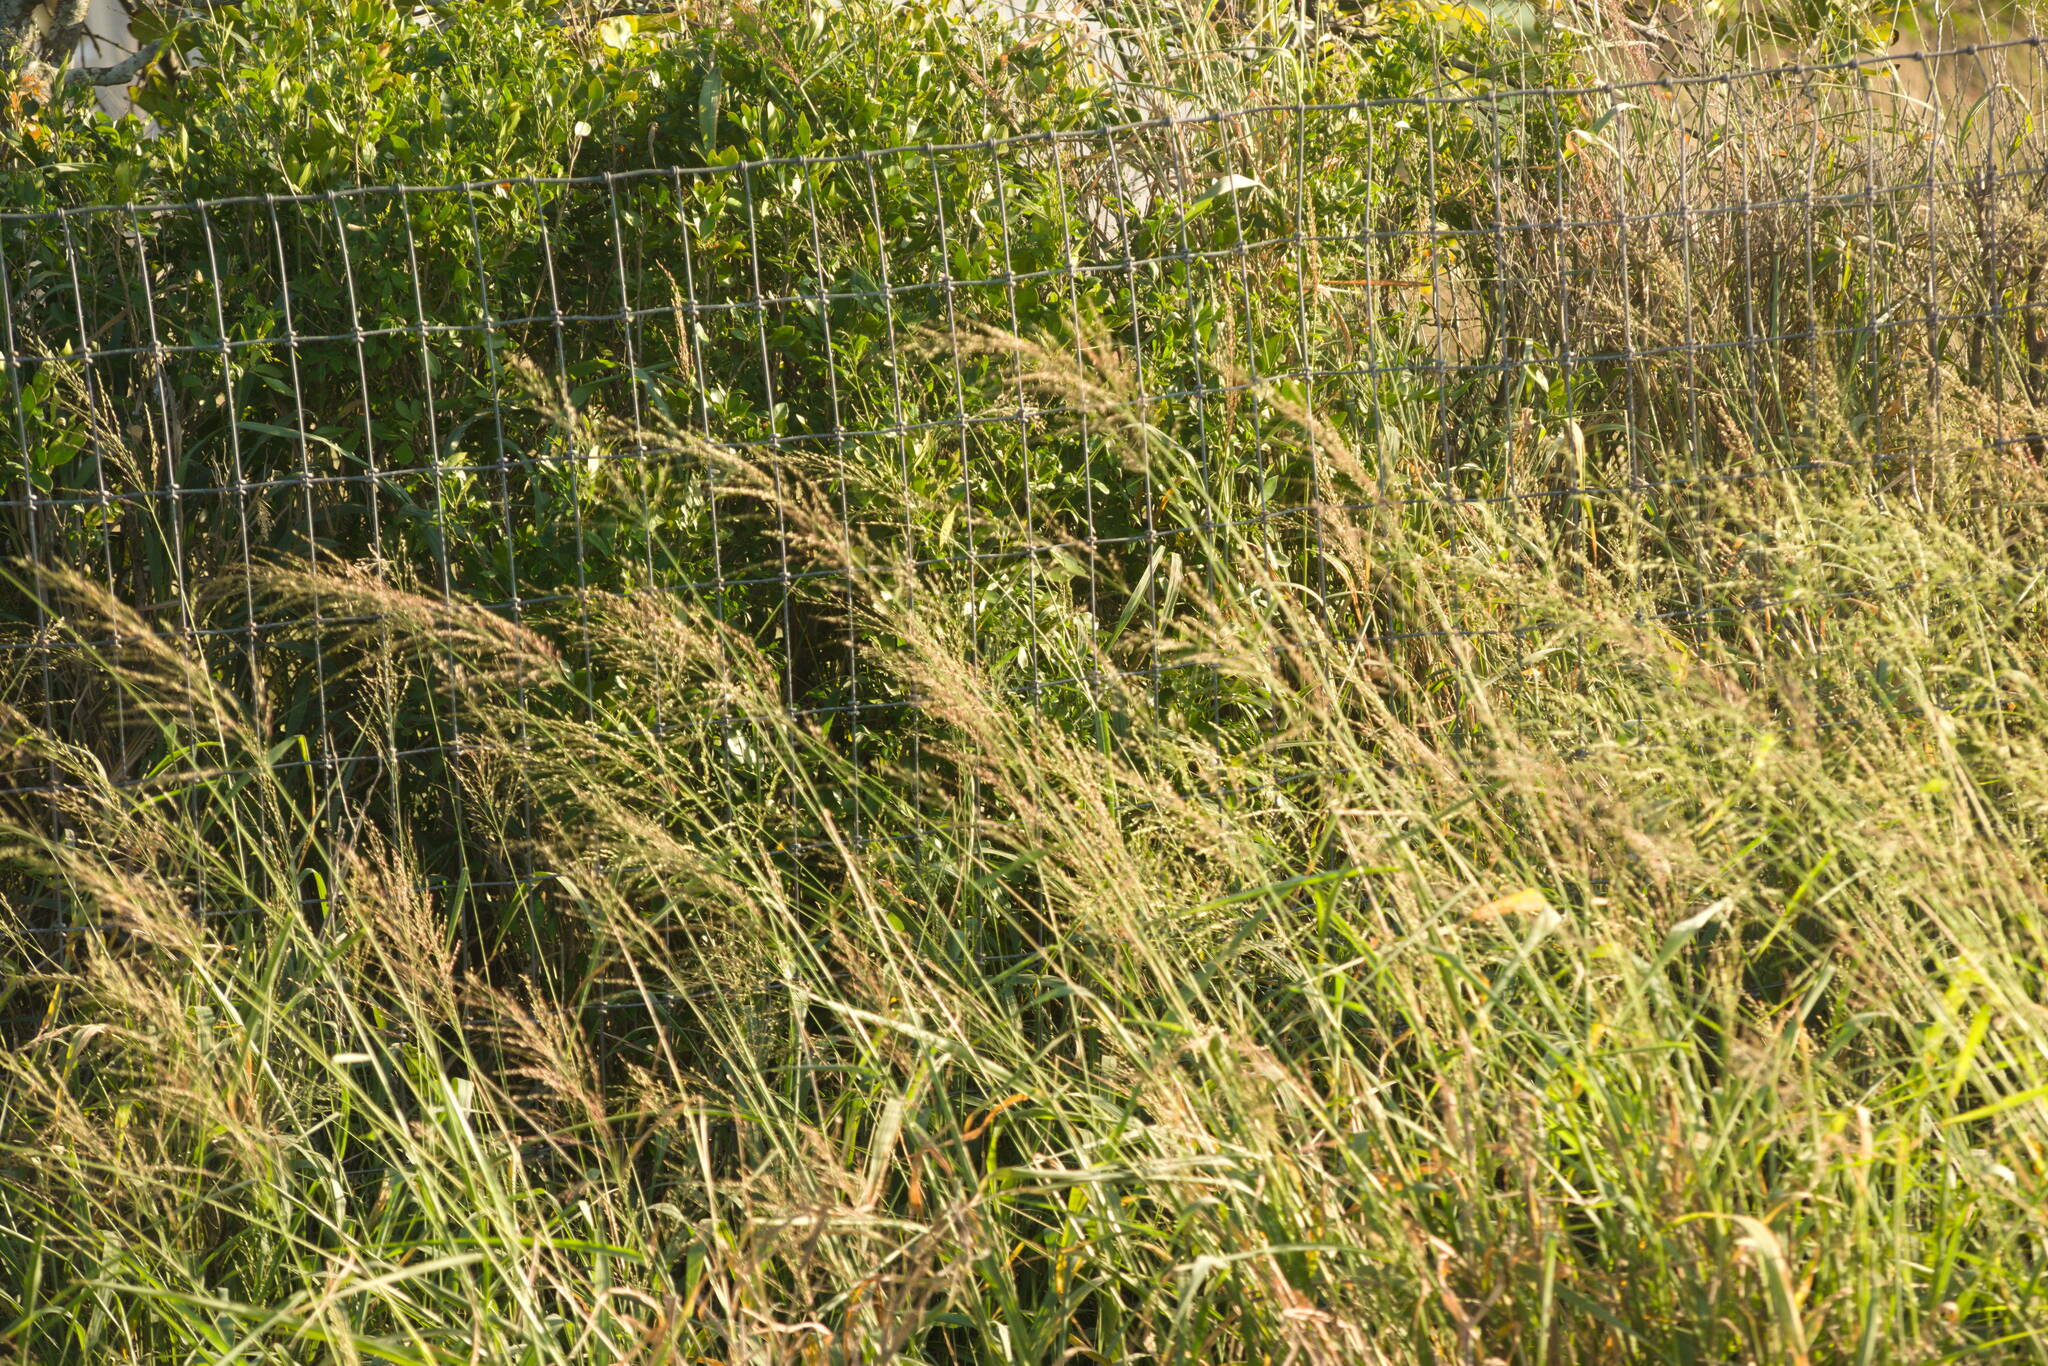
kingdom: Plantae
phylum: Tracheophyta
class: Liliopsida
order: Poales
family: Poaceae
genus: Megathyrsus
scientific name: Megathyrsus maximus
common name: Guineagrass
